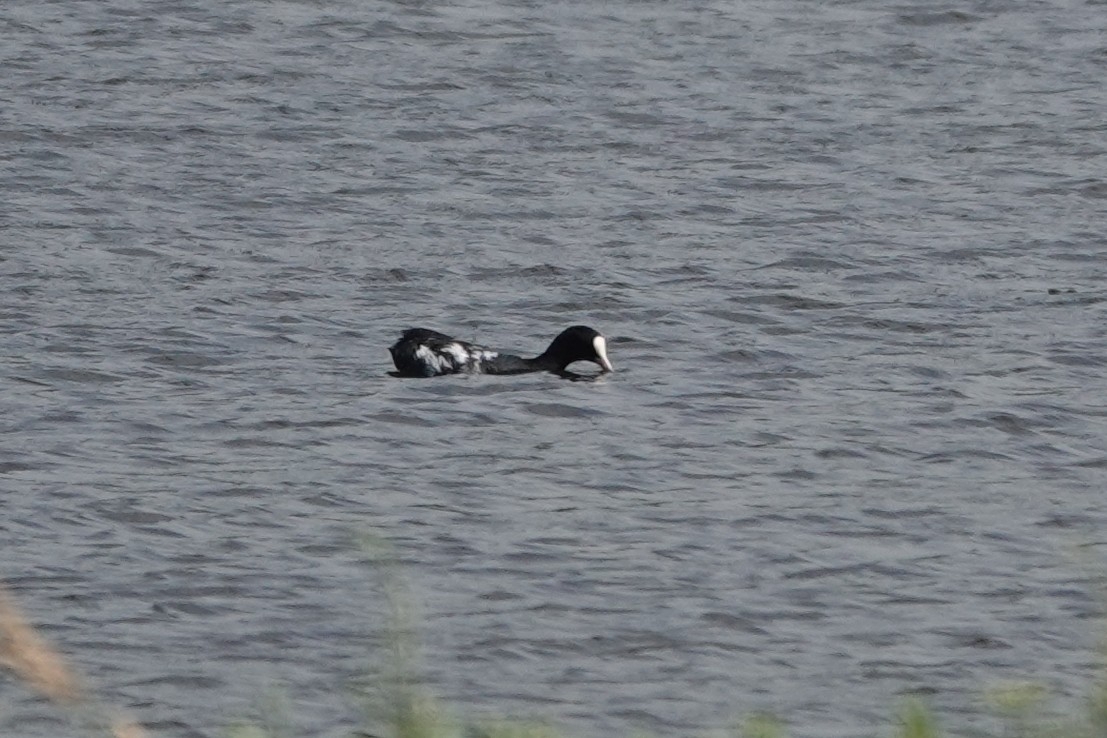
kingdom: Animalia
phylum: Chordata
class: Aves
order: Gruiformes
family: Rallidae
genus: Fulica
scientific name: Fulica atra
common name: Eurasian coot
